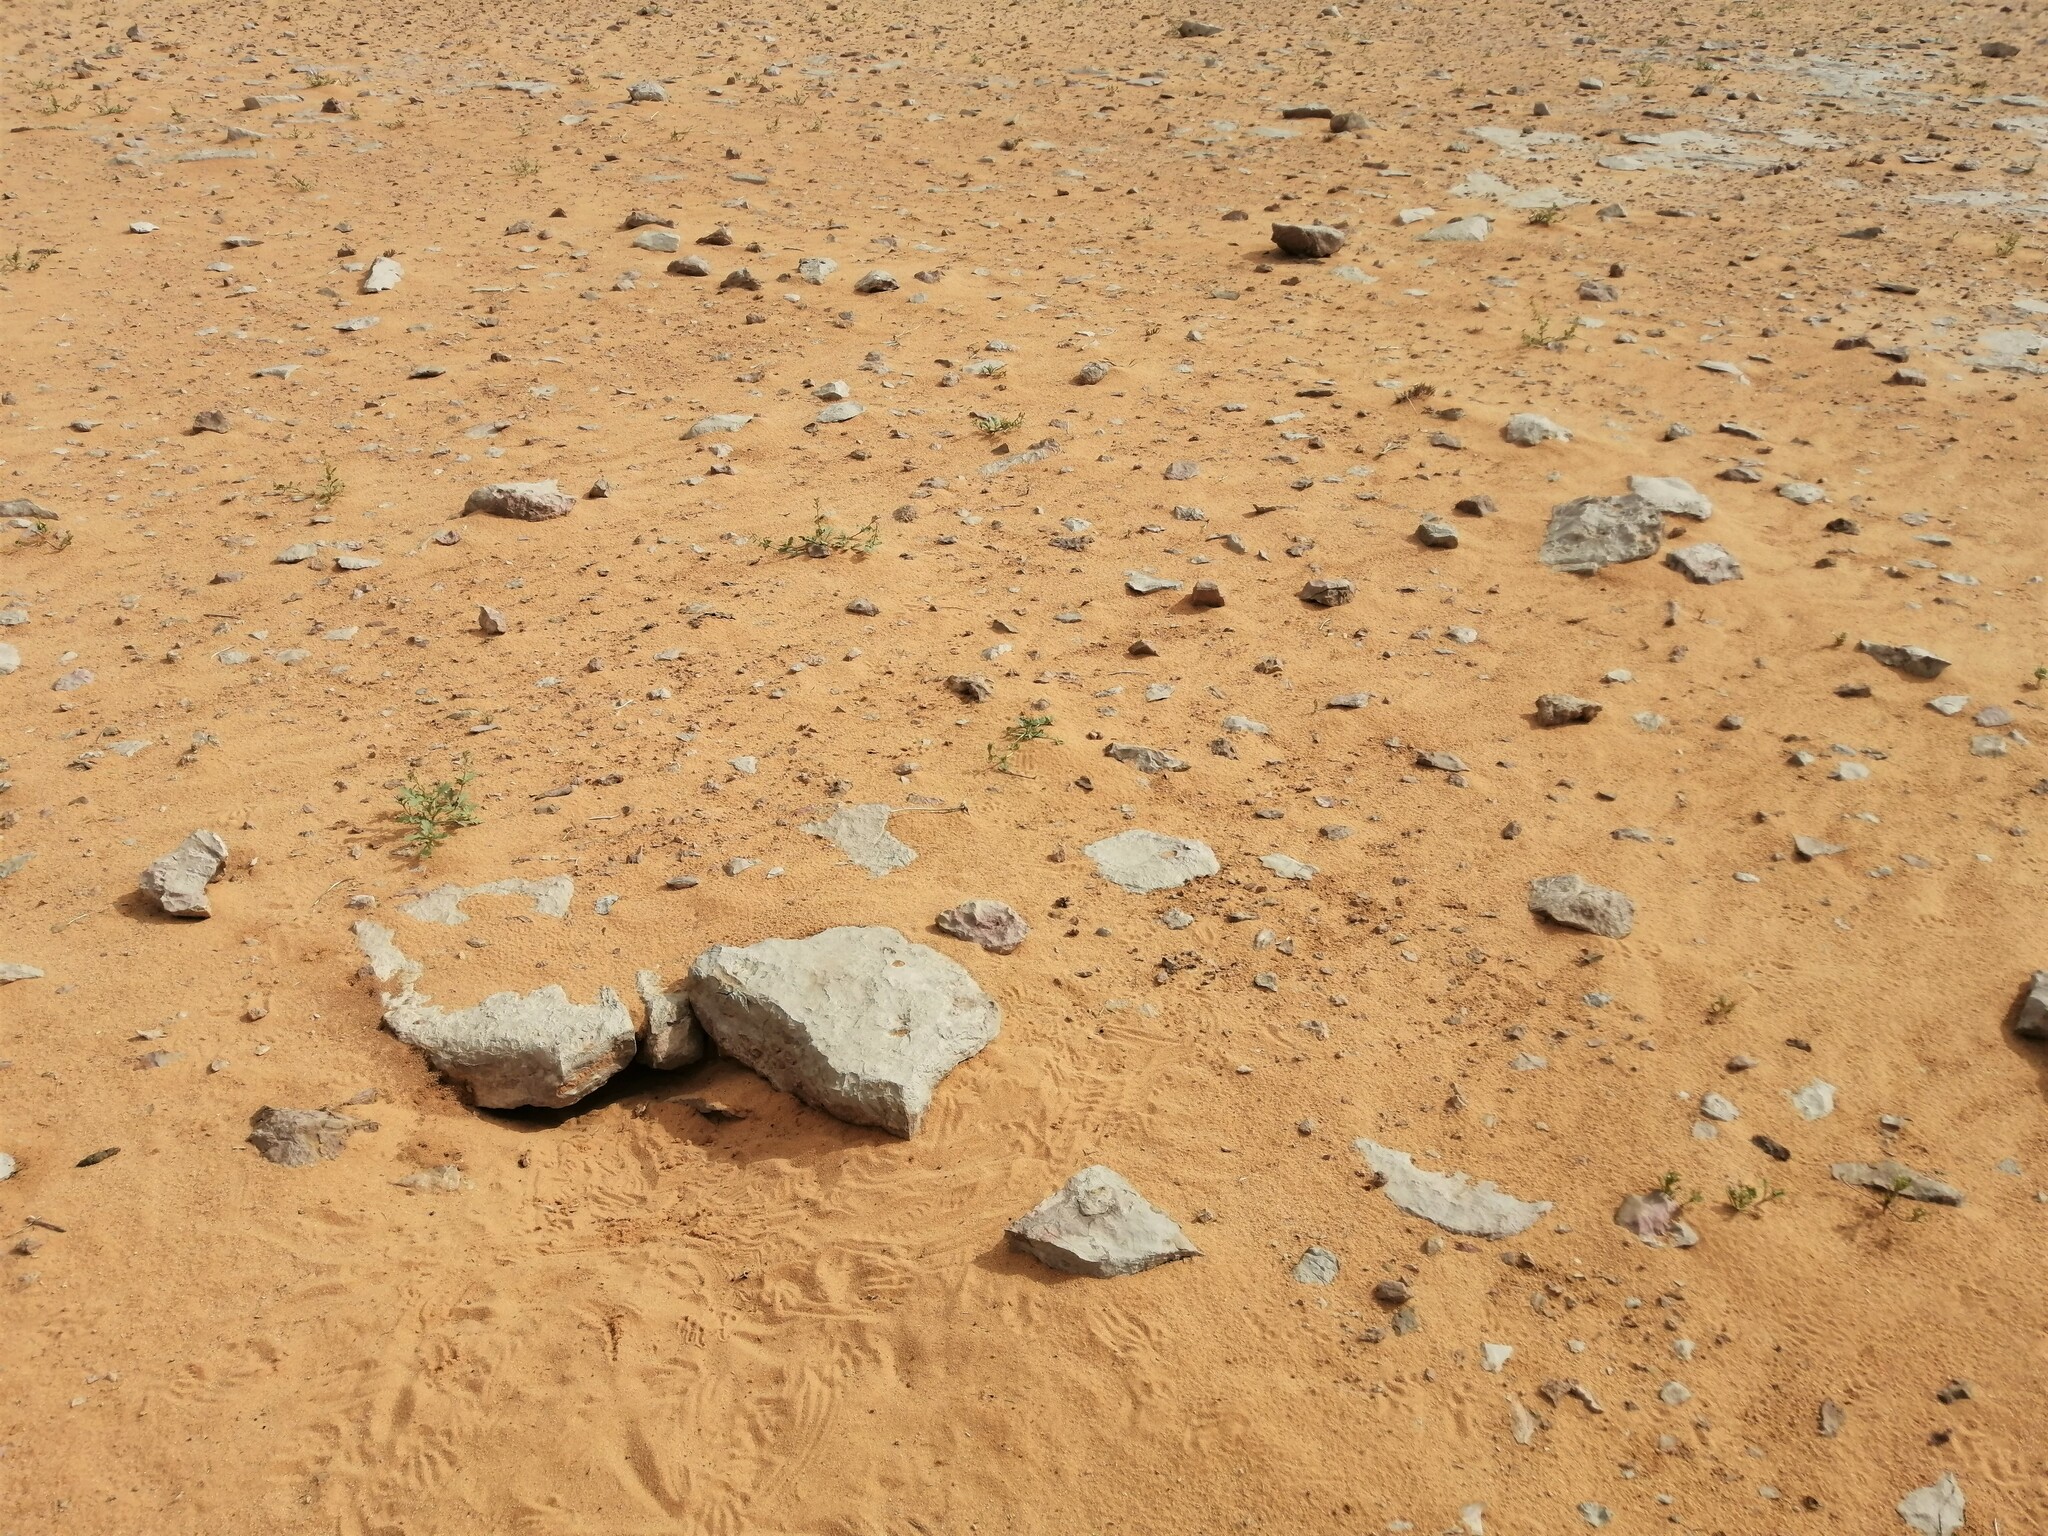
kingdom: Animalia
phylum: Chordata
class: Squamata
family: Agamidae
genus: Uromastyx
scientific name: Uromastyx aegyptia
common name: Egyptian mastigure
